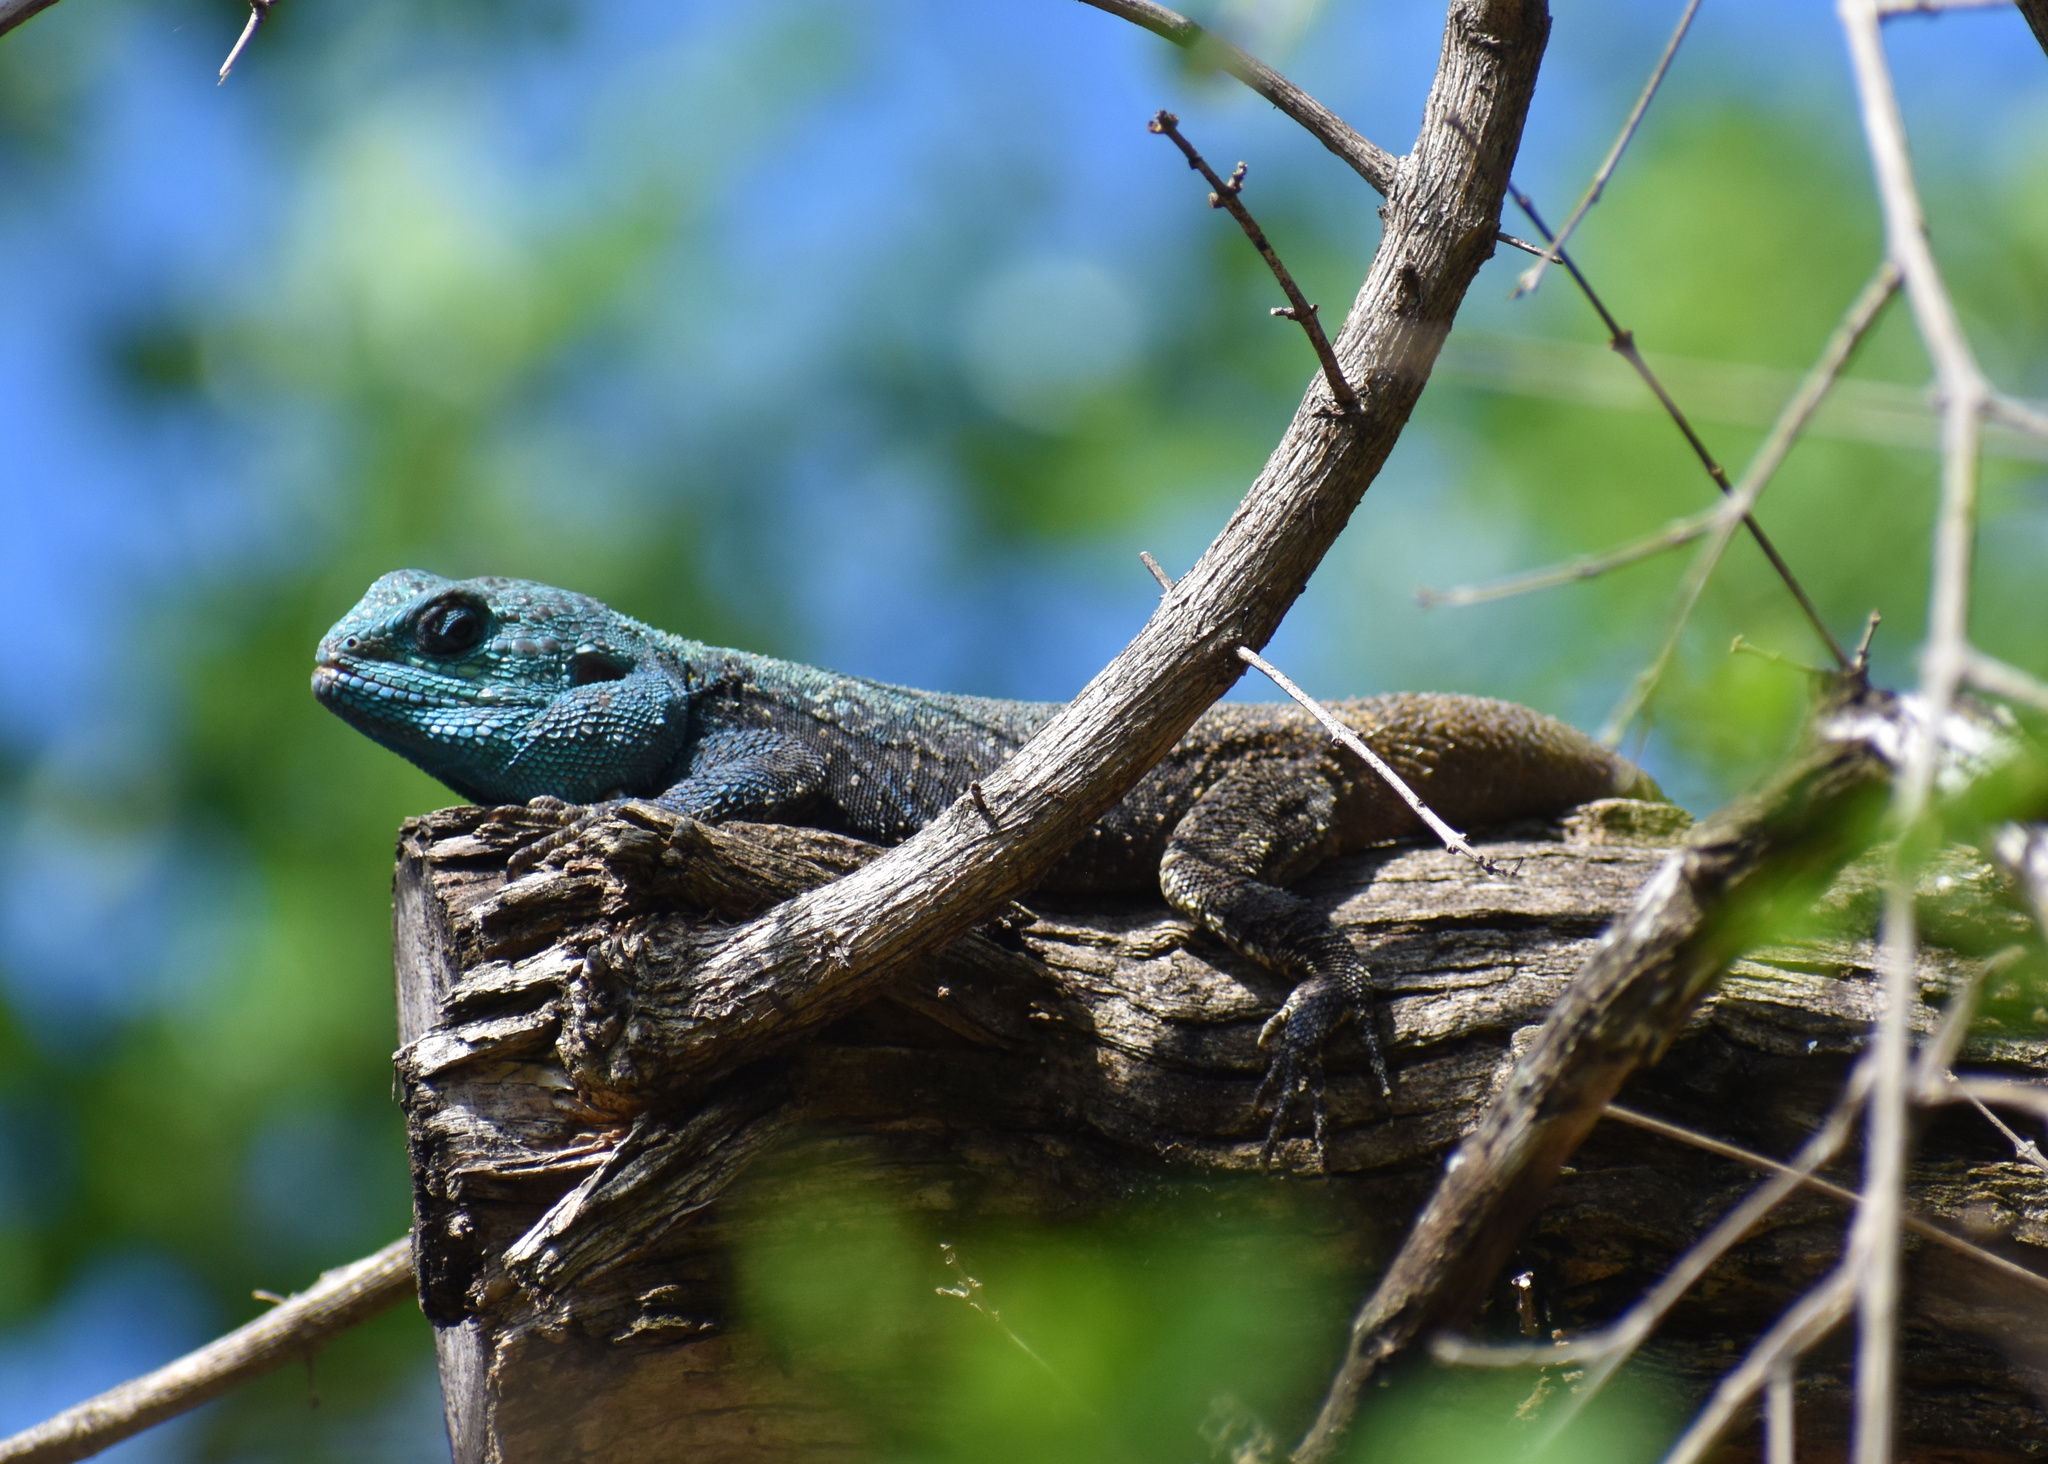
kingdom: Animalia
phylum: Chordata
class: Squamata
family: Agamidae
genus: Acanthocercus
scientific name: Acanthocercus atricollis
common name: Southern tree agama
